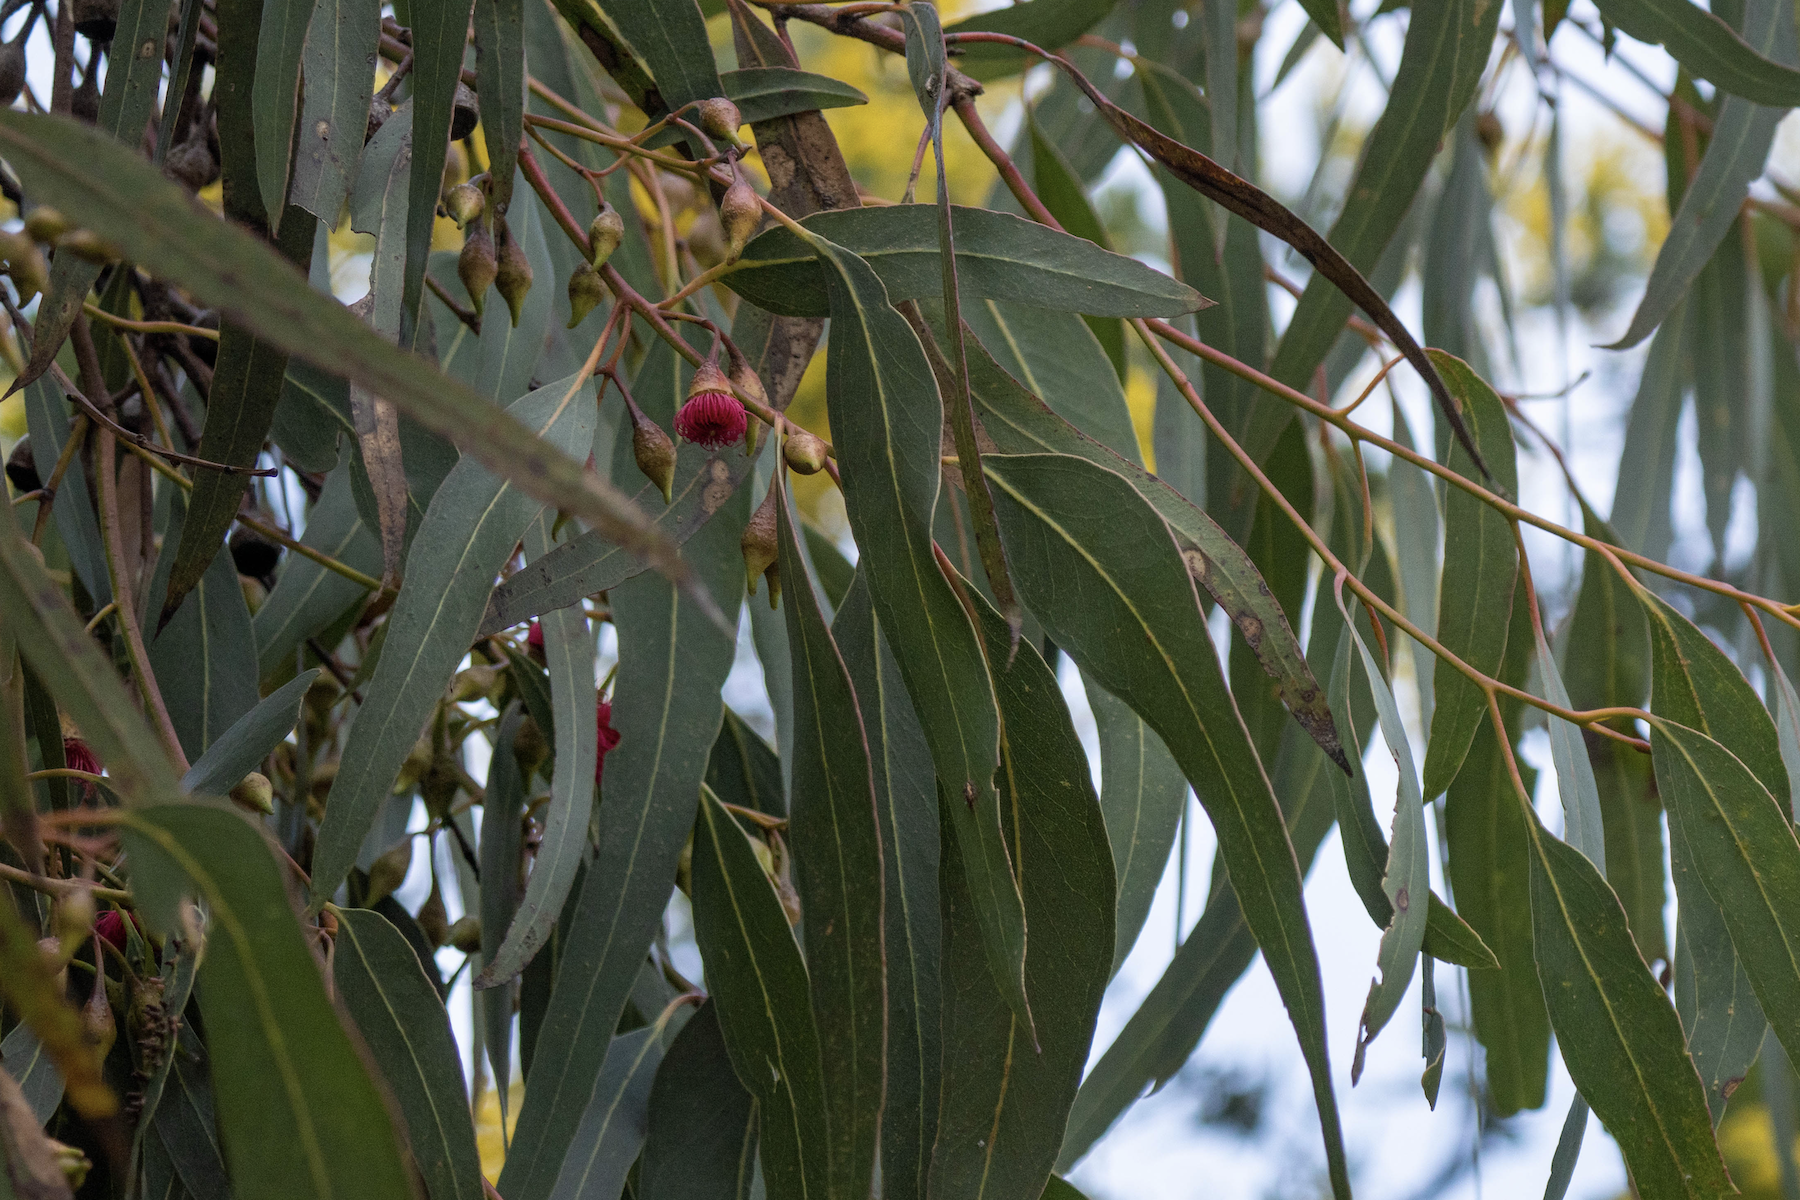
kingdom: Plantae
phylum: Tracheophyta
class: Magnoliopsida
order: Myrtales
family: Myrtaceae
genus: Eucalyptus
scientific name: Eucalyptus leucoxylon
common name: Blue gum
